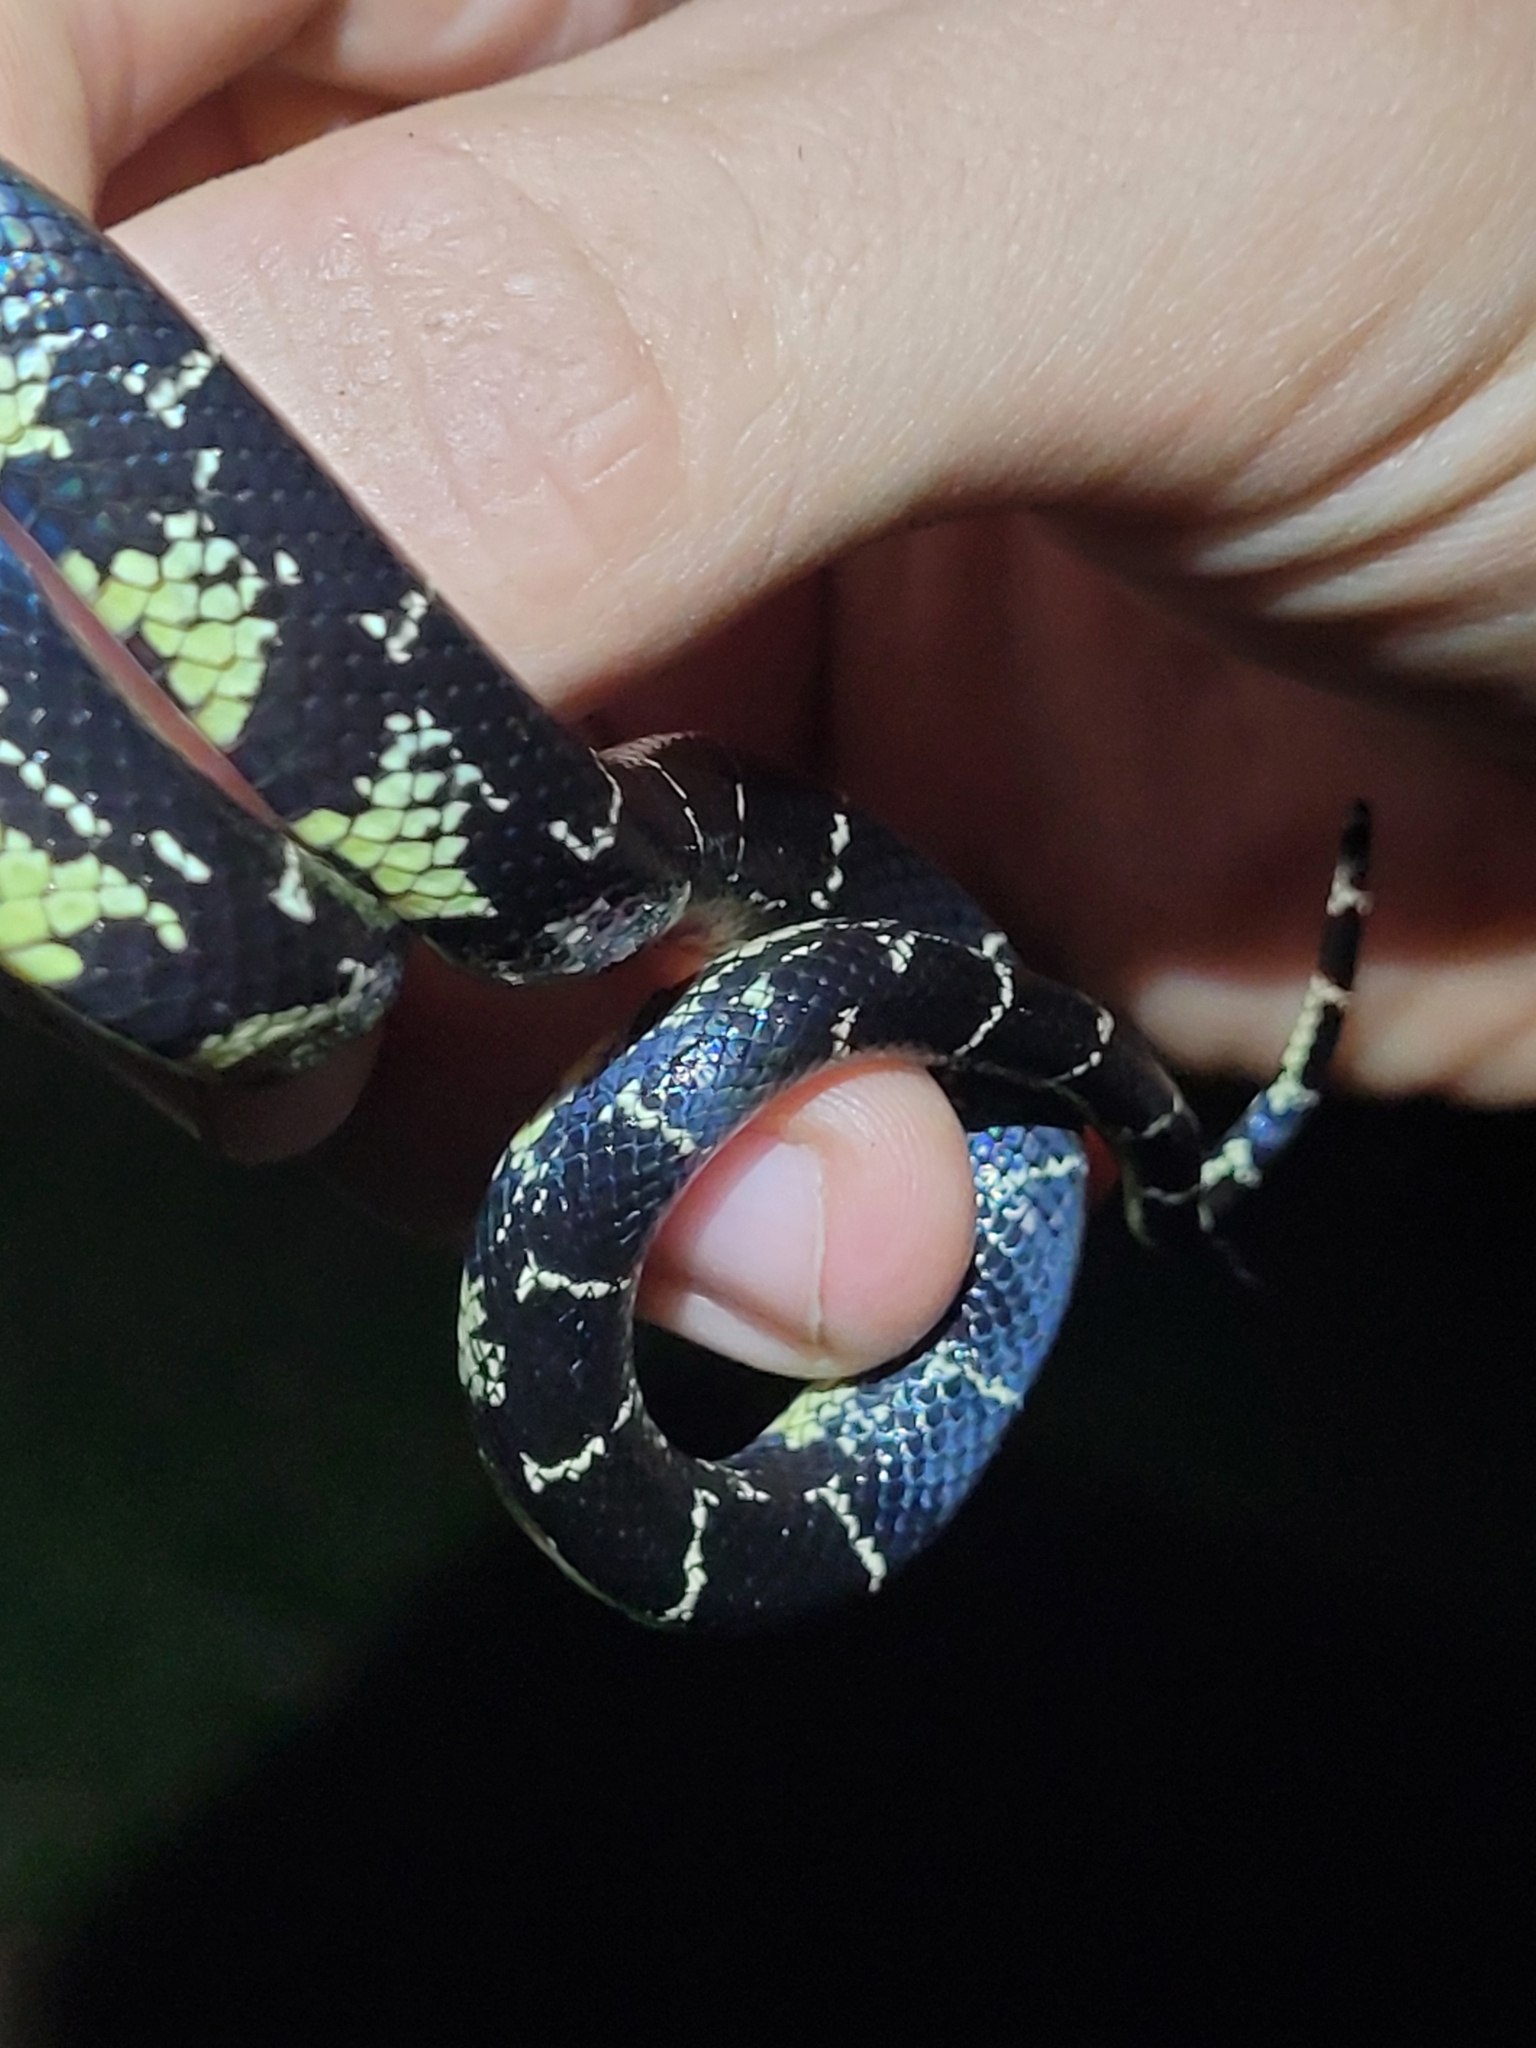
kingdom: Animalia
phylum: Chordata
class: Squamata
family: Colubridae
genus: Lampropeltis
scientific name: Lampropeltis nigra
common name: Black kingsnake
